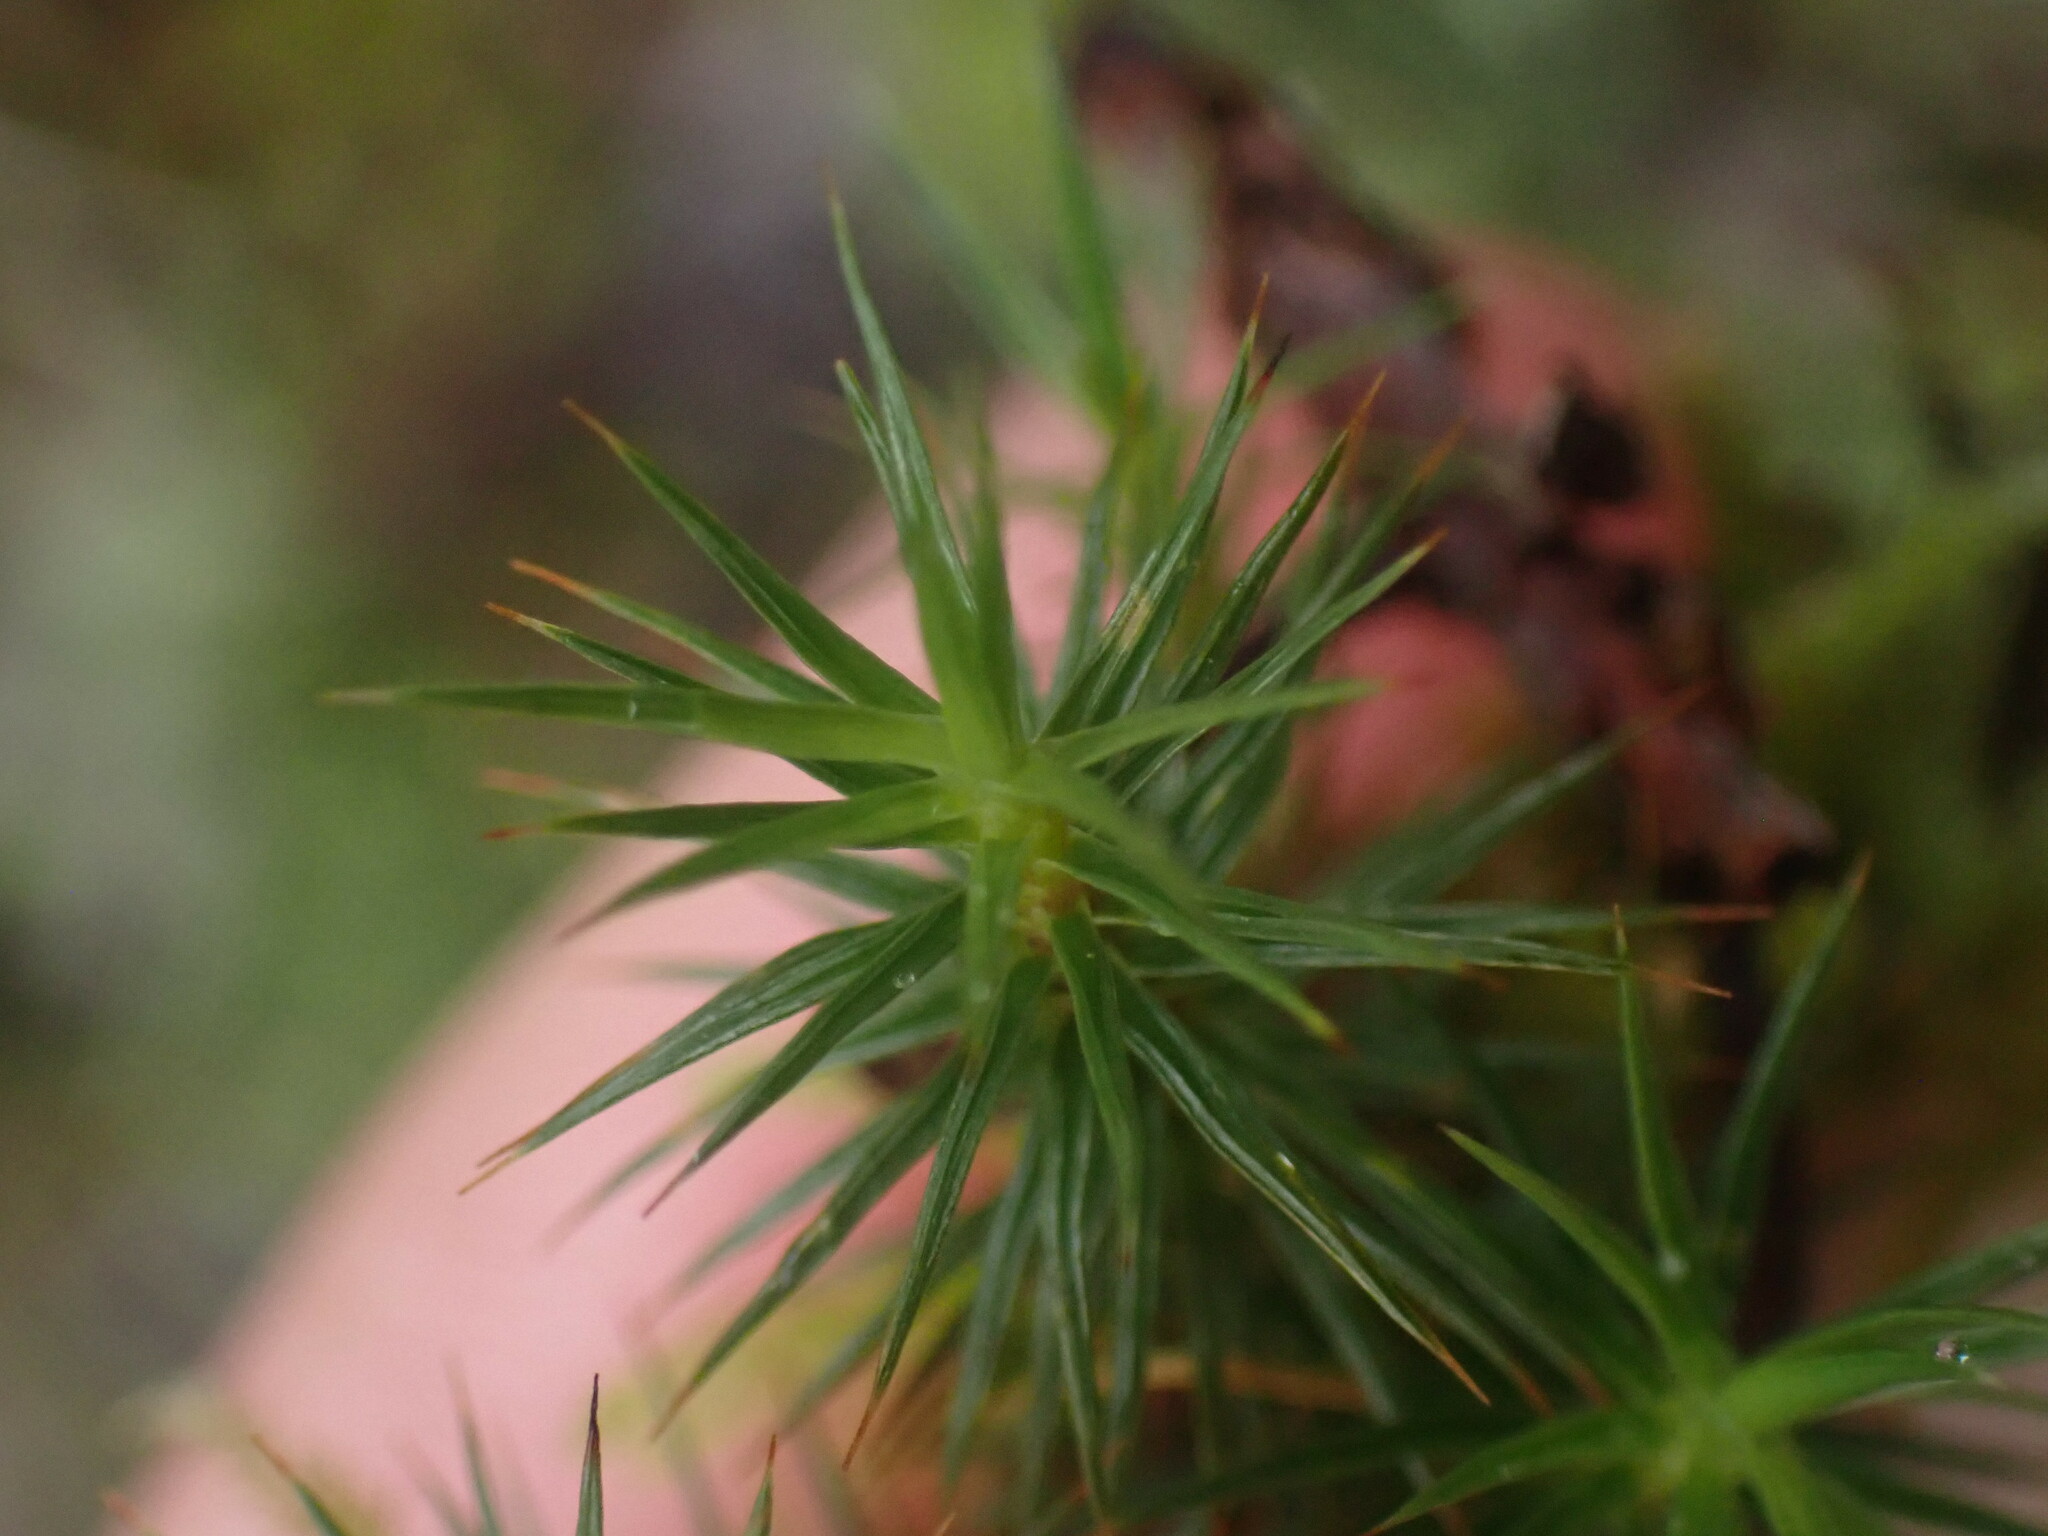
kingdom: Plantae
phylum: Bryophyta
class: Polytrichopsida
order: Polytrichales
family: Polytrichaceae
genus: Polytrichum
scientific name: Polytrichum juniperinum
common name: Juniper haircap moss
